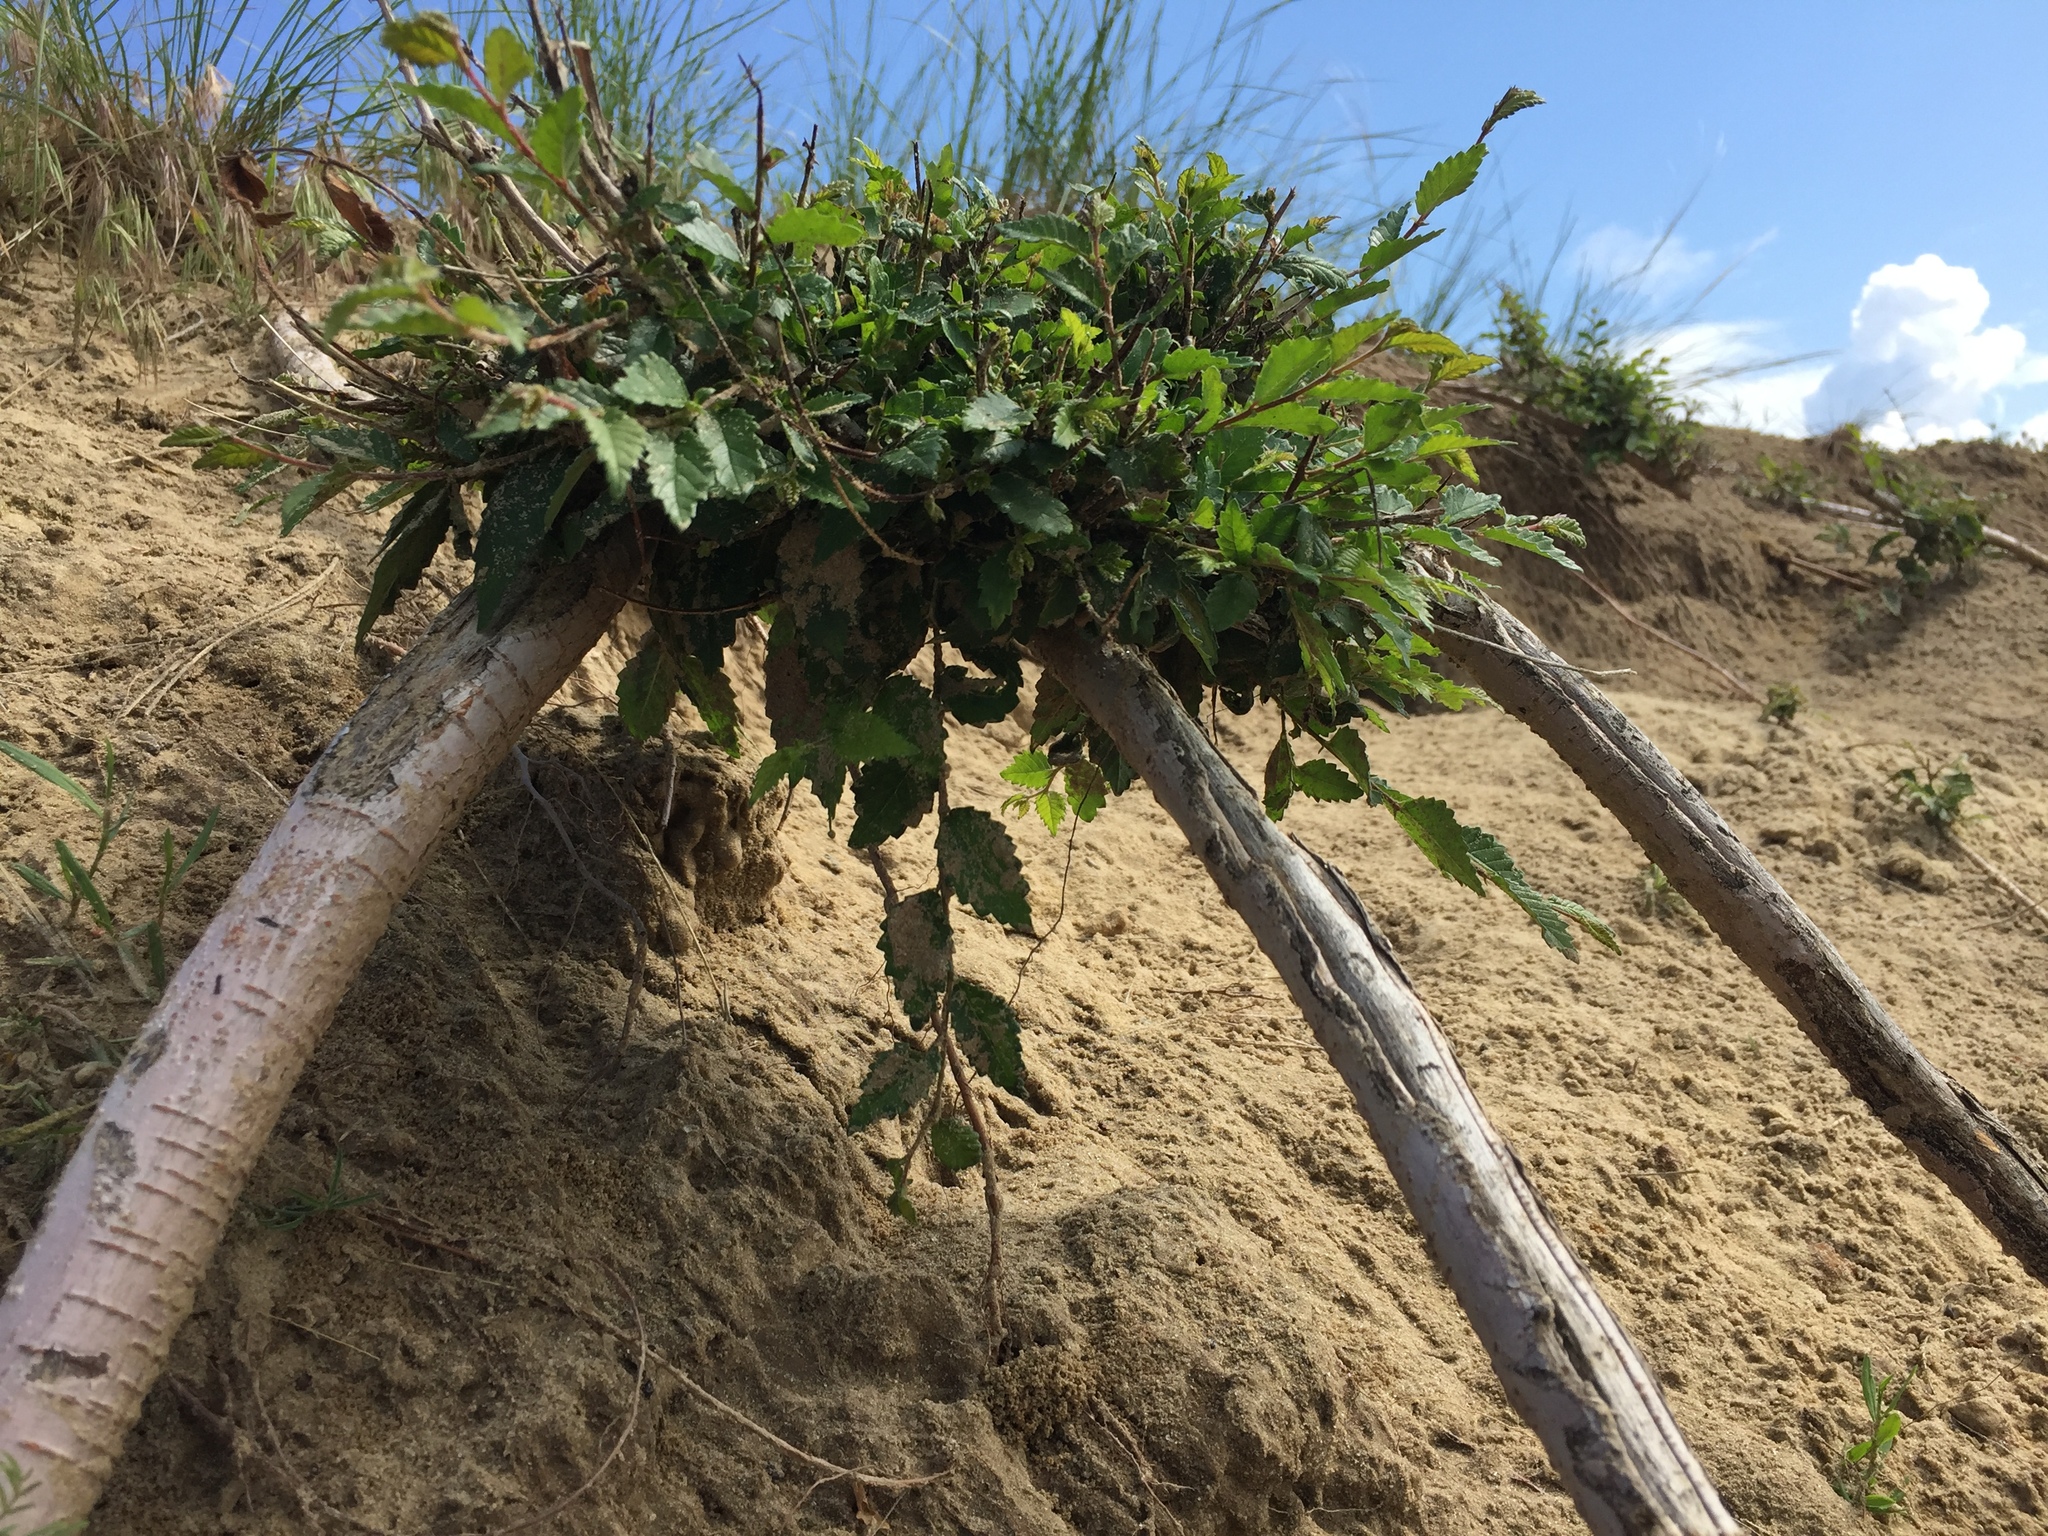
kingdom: Plantae
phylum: Tracheophyta
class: Magnoliopsida
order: Rosales
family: Ulmaceae
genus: Ulmus
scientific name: Ulmus pumila
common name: Siberian elm
